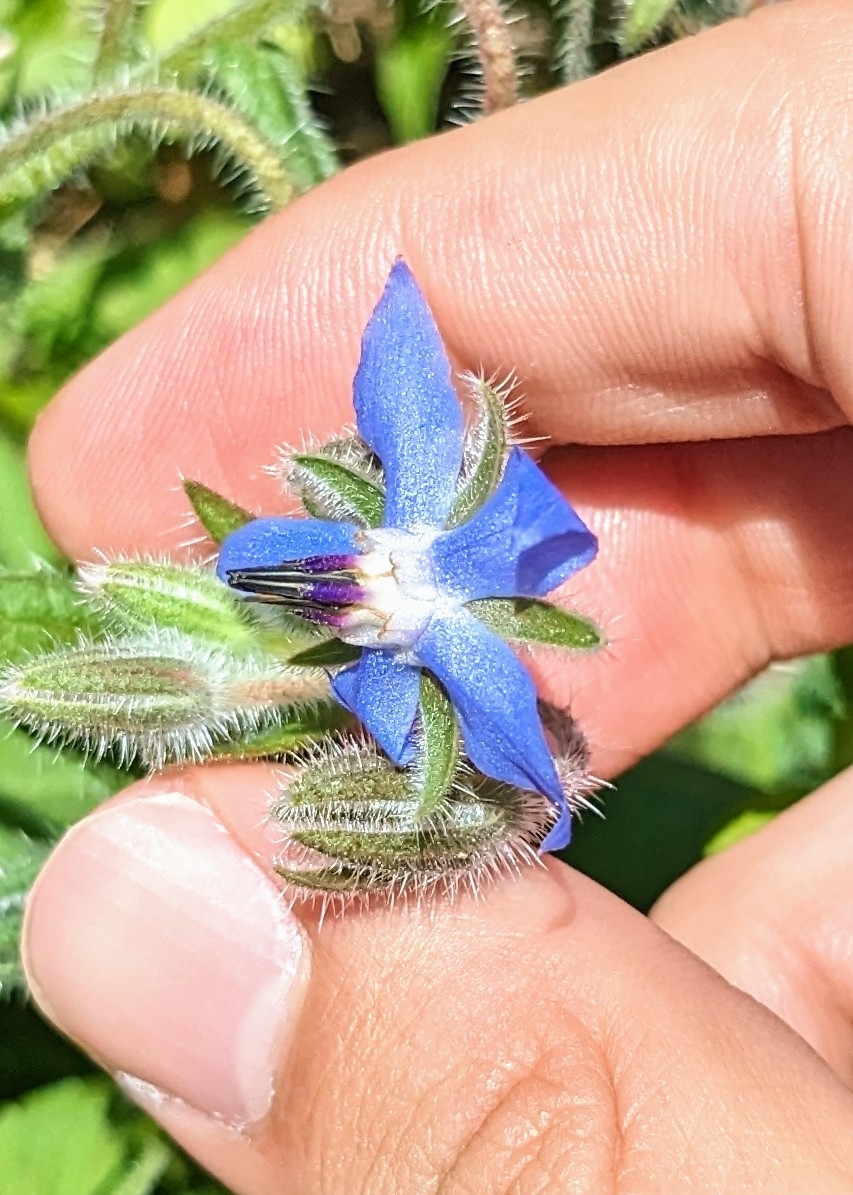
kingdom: Plantae
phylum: Tracheophyta
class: Magnoliopsida
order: Boraginales
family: Boraginaceae
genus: Borago
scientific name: Borago officinalis
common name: Borage
